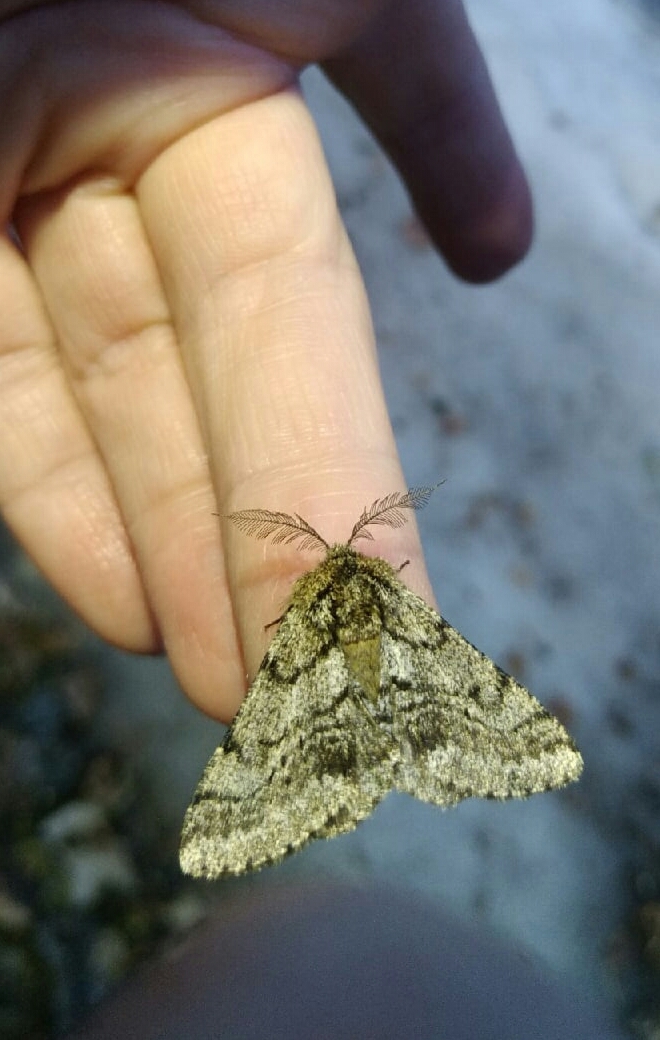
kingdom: Animalia
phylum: Arthropoda
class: Insecta
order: Lepidoptera
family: Geometridae
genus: Lycia
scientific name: Lycia hirtaria
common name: Brindled beauty
